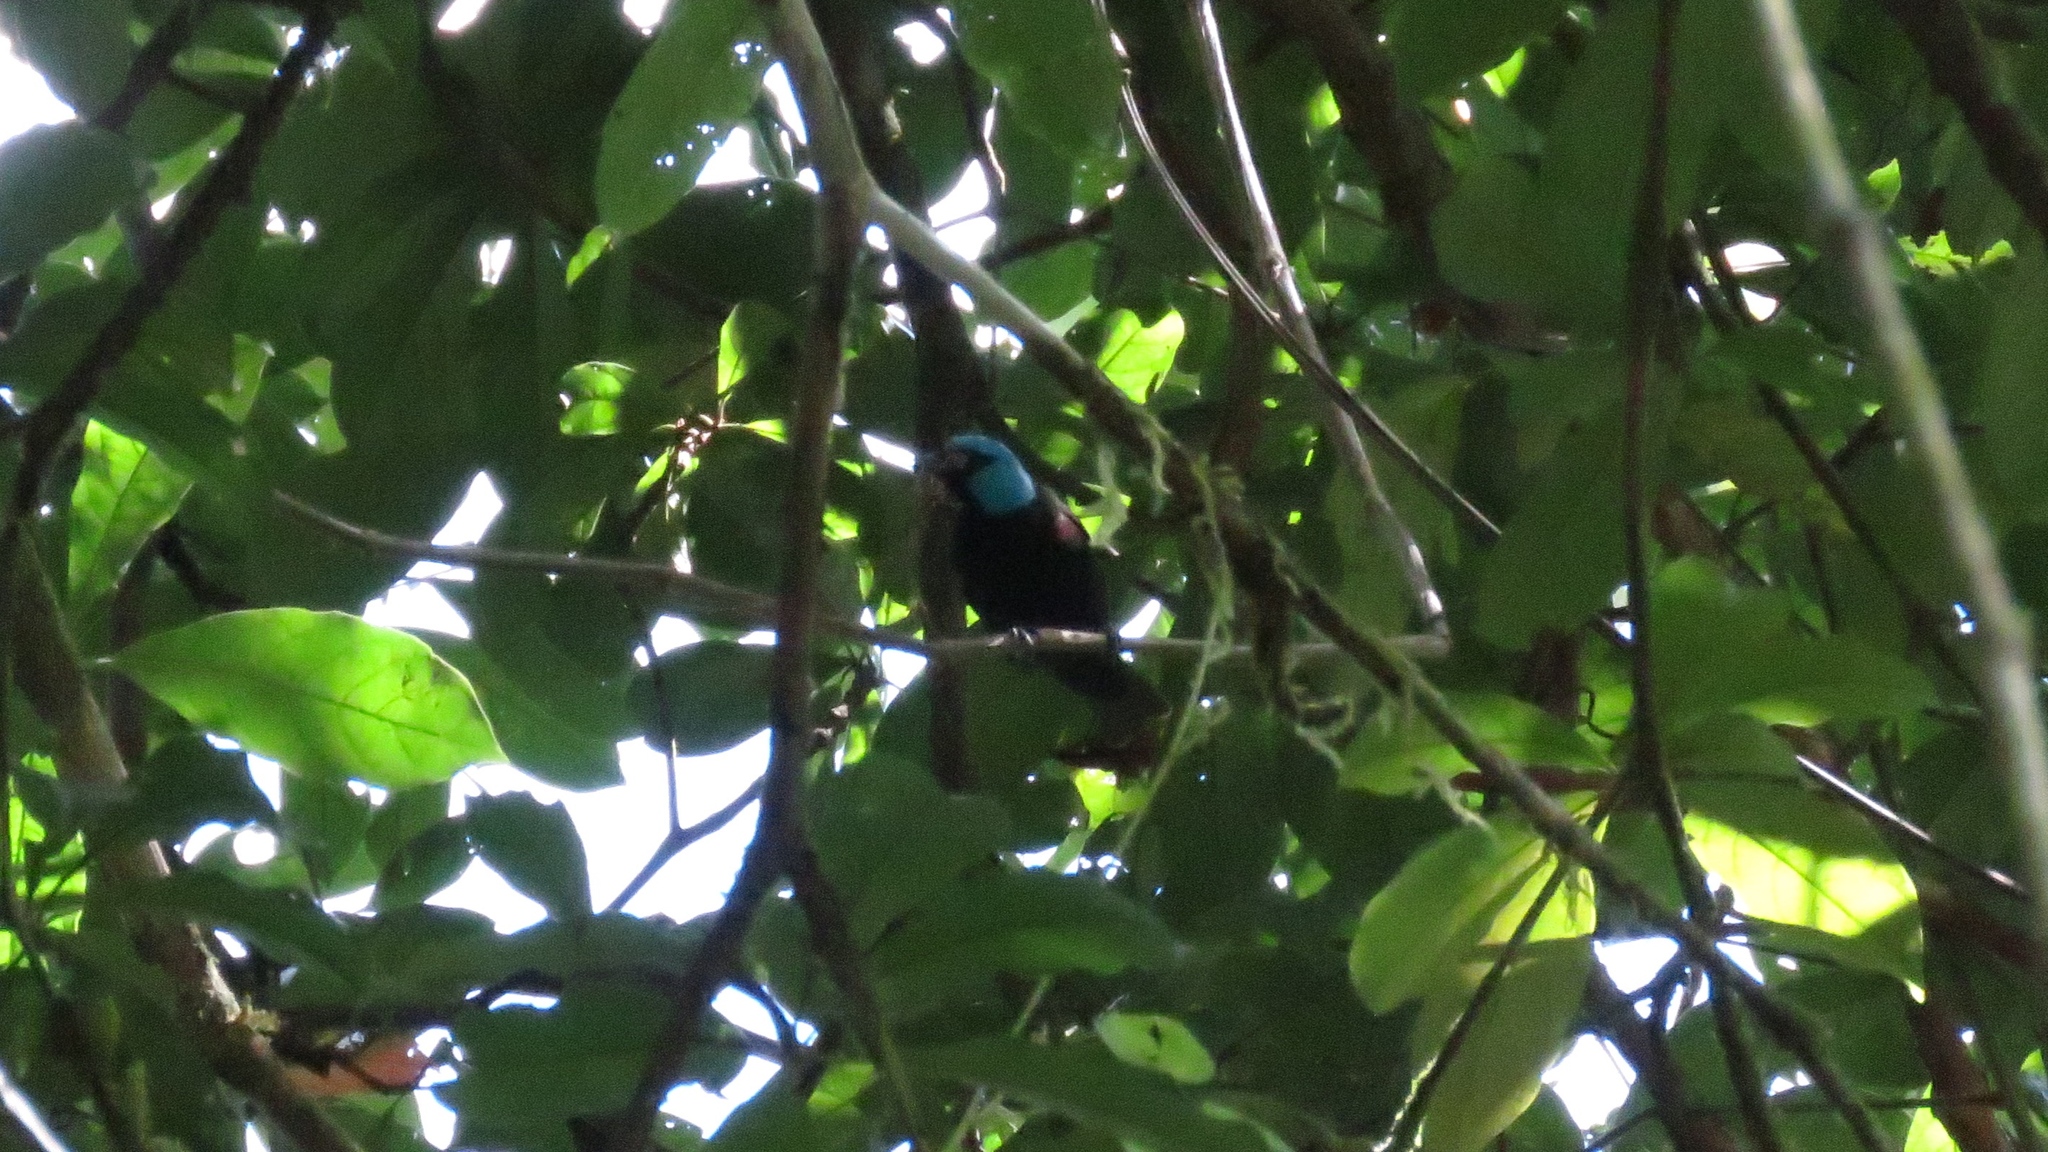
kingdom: Animalia
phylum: Chordata
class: Aves
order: Passeriformes
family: Thraupidae
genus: Dacnis
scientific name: Dacnis venusta
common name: Scarlet-thighed dacnis
